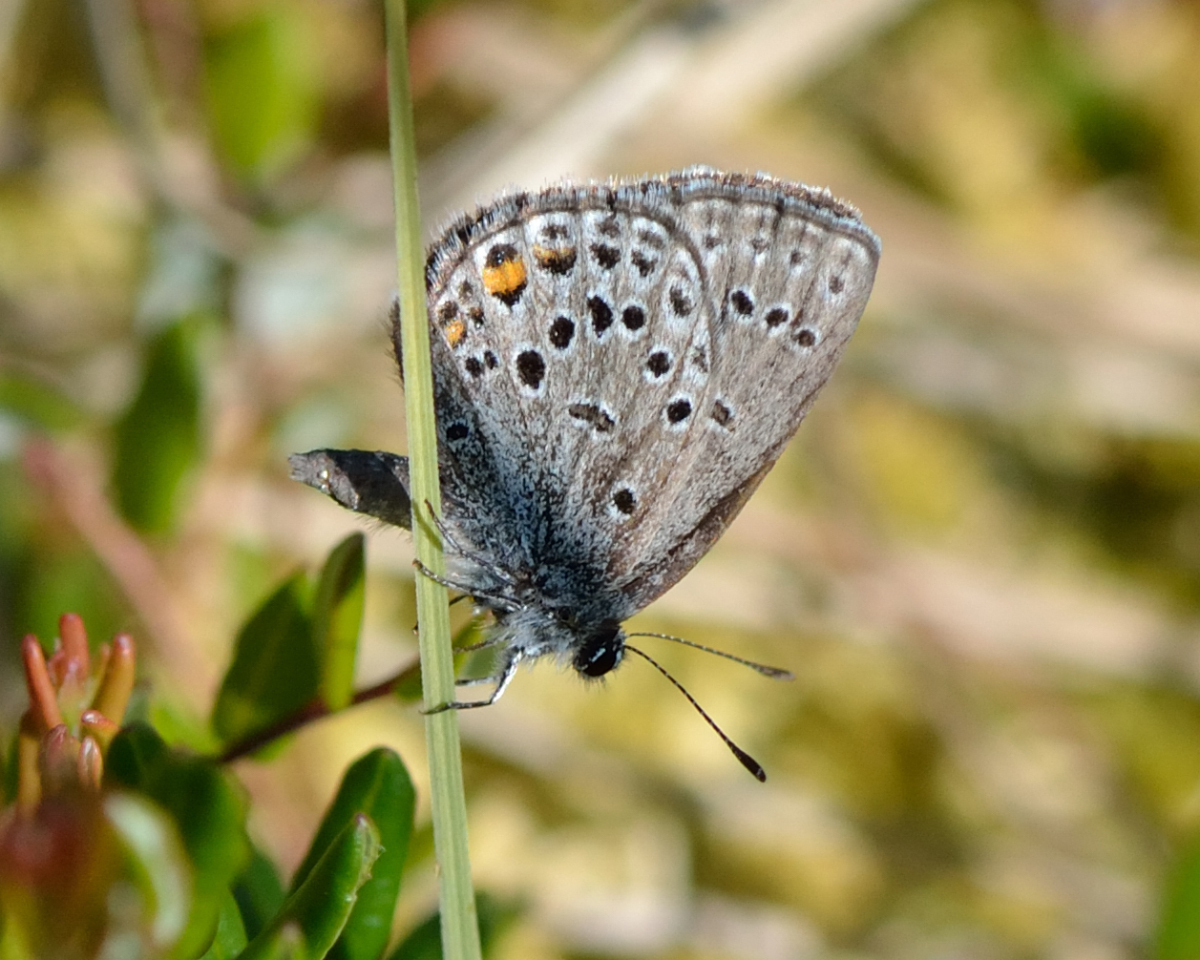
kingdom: Animalia
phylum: Arthropoda
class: Insecta
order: Lepidoptera
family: Lycaenidae
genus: Vacciniina
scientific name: Vacciniina optilete
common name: Cranberry blue
